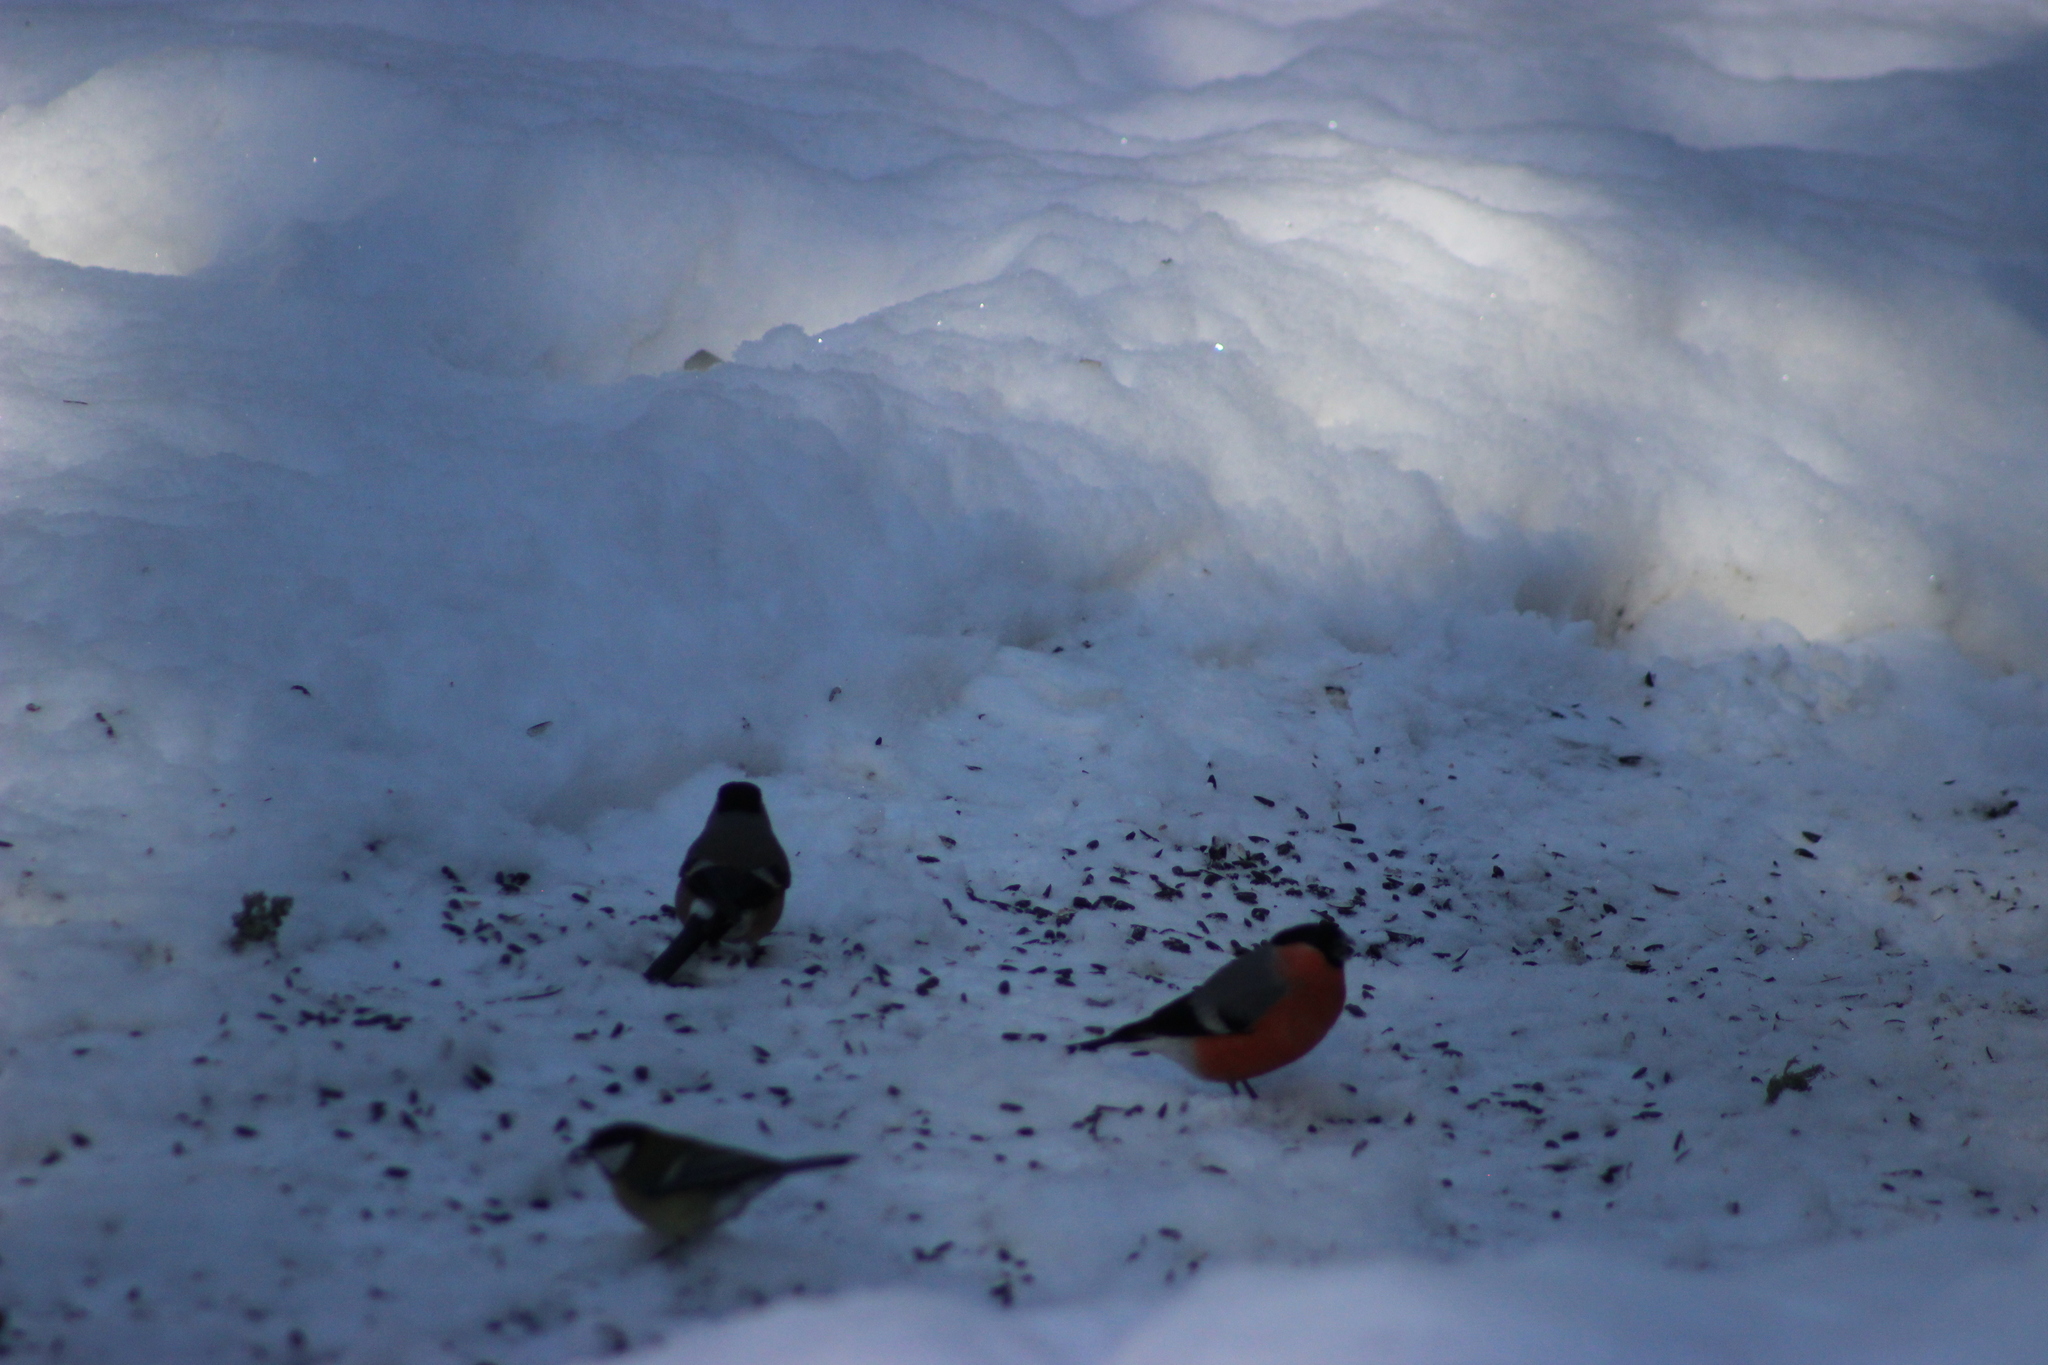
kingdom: Animalia
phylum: Chordata
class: Aves
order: Passeriformes
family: Fringillidae
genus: Pyrrhula
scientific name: Pyrrhula pyrrhula
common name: Eurasian bullfinch
